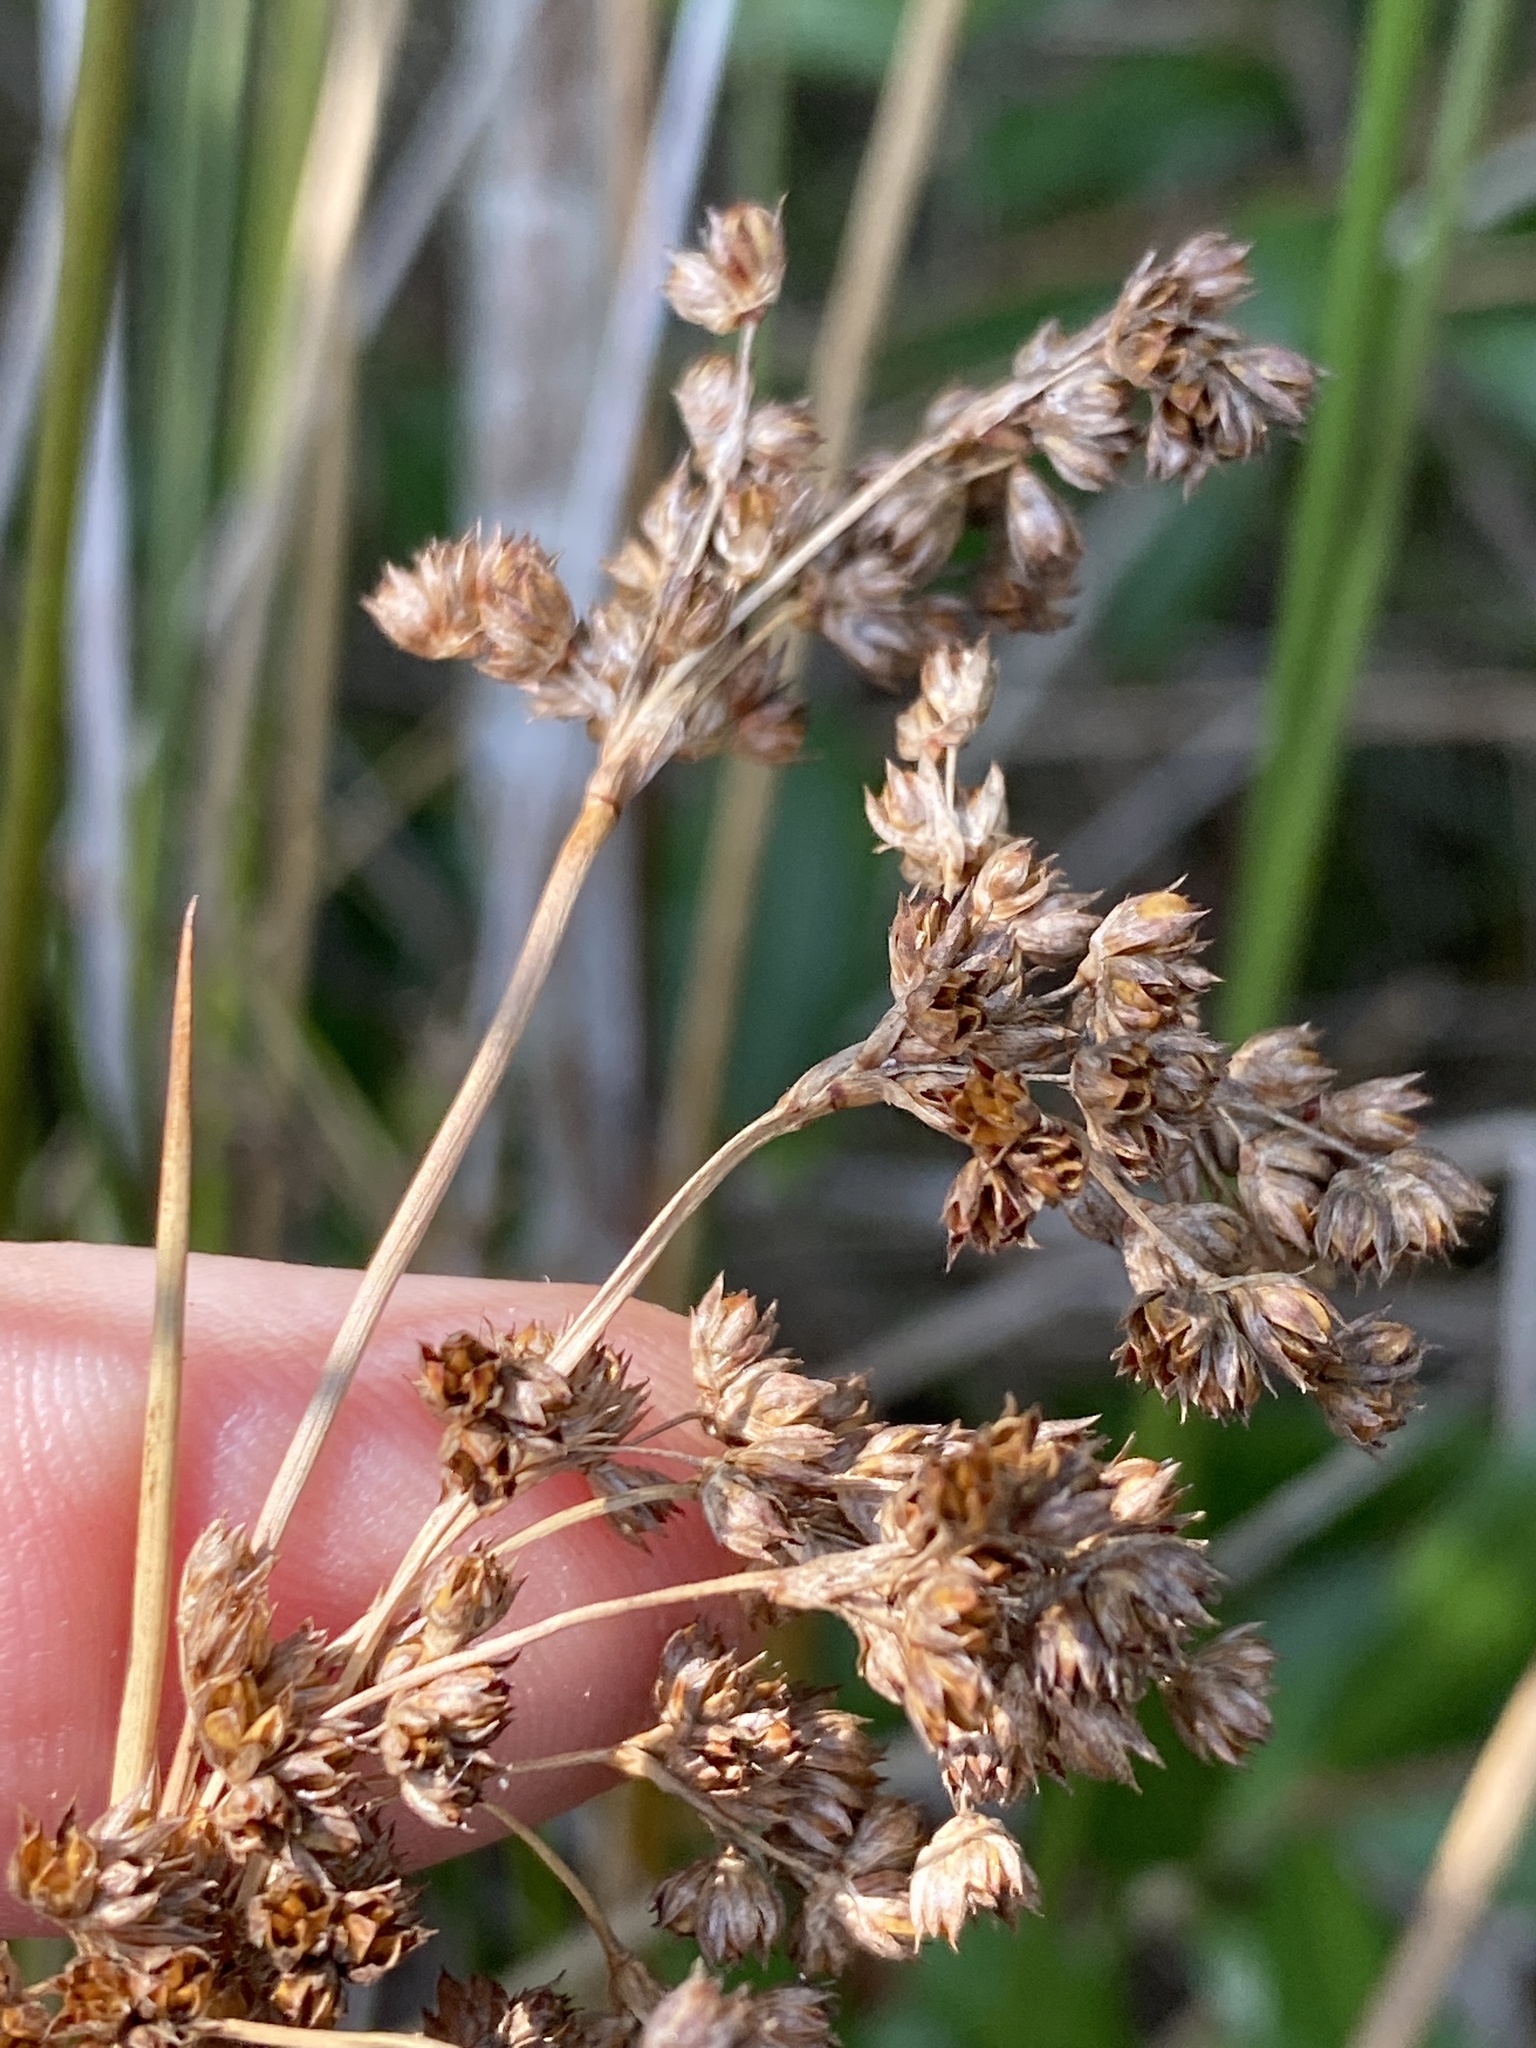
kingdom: Plantae
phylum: Tracheophyta
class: Liliopsida
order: Poales
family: Juncaceae
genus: Juncus
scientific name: Juncus roemerianus
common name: Roemer's rush
